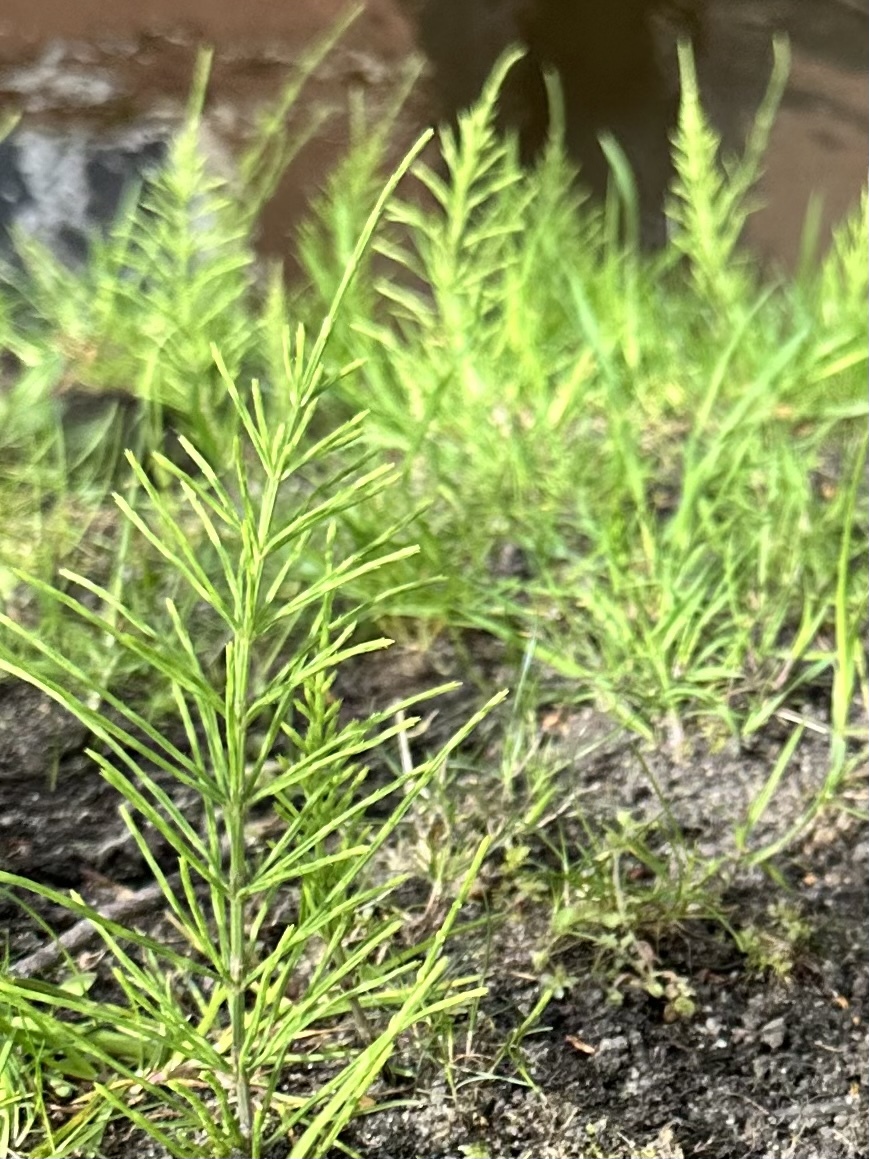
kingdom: Plantae
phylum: Tracheophyta
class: Polypodiopsida
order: Equisetales
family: Equisetaceae
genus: Equisetum
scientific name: Equisetum arvense
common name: Field horsetail
